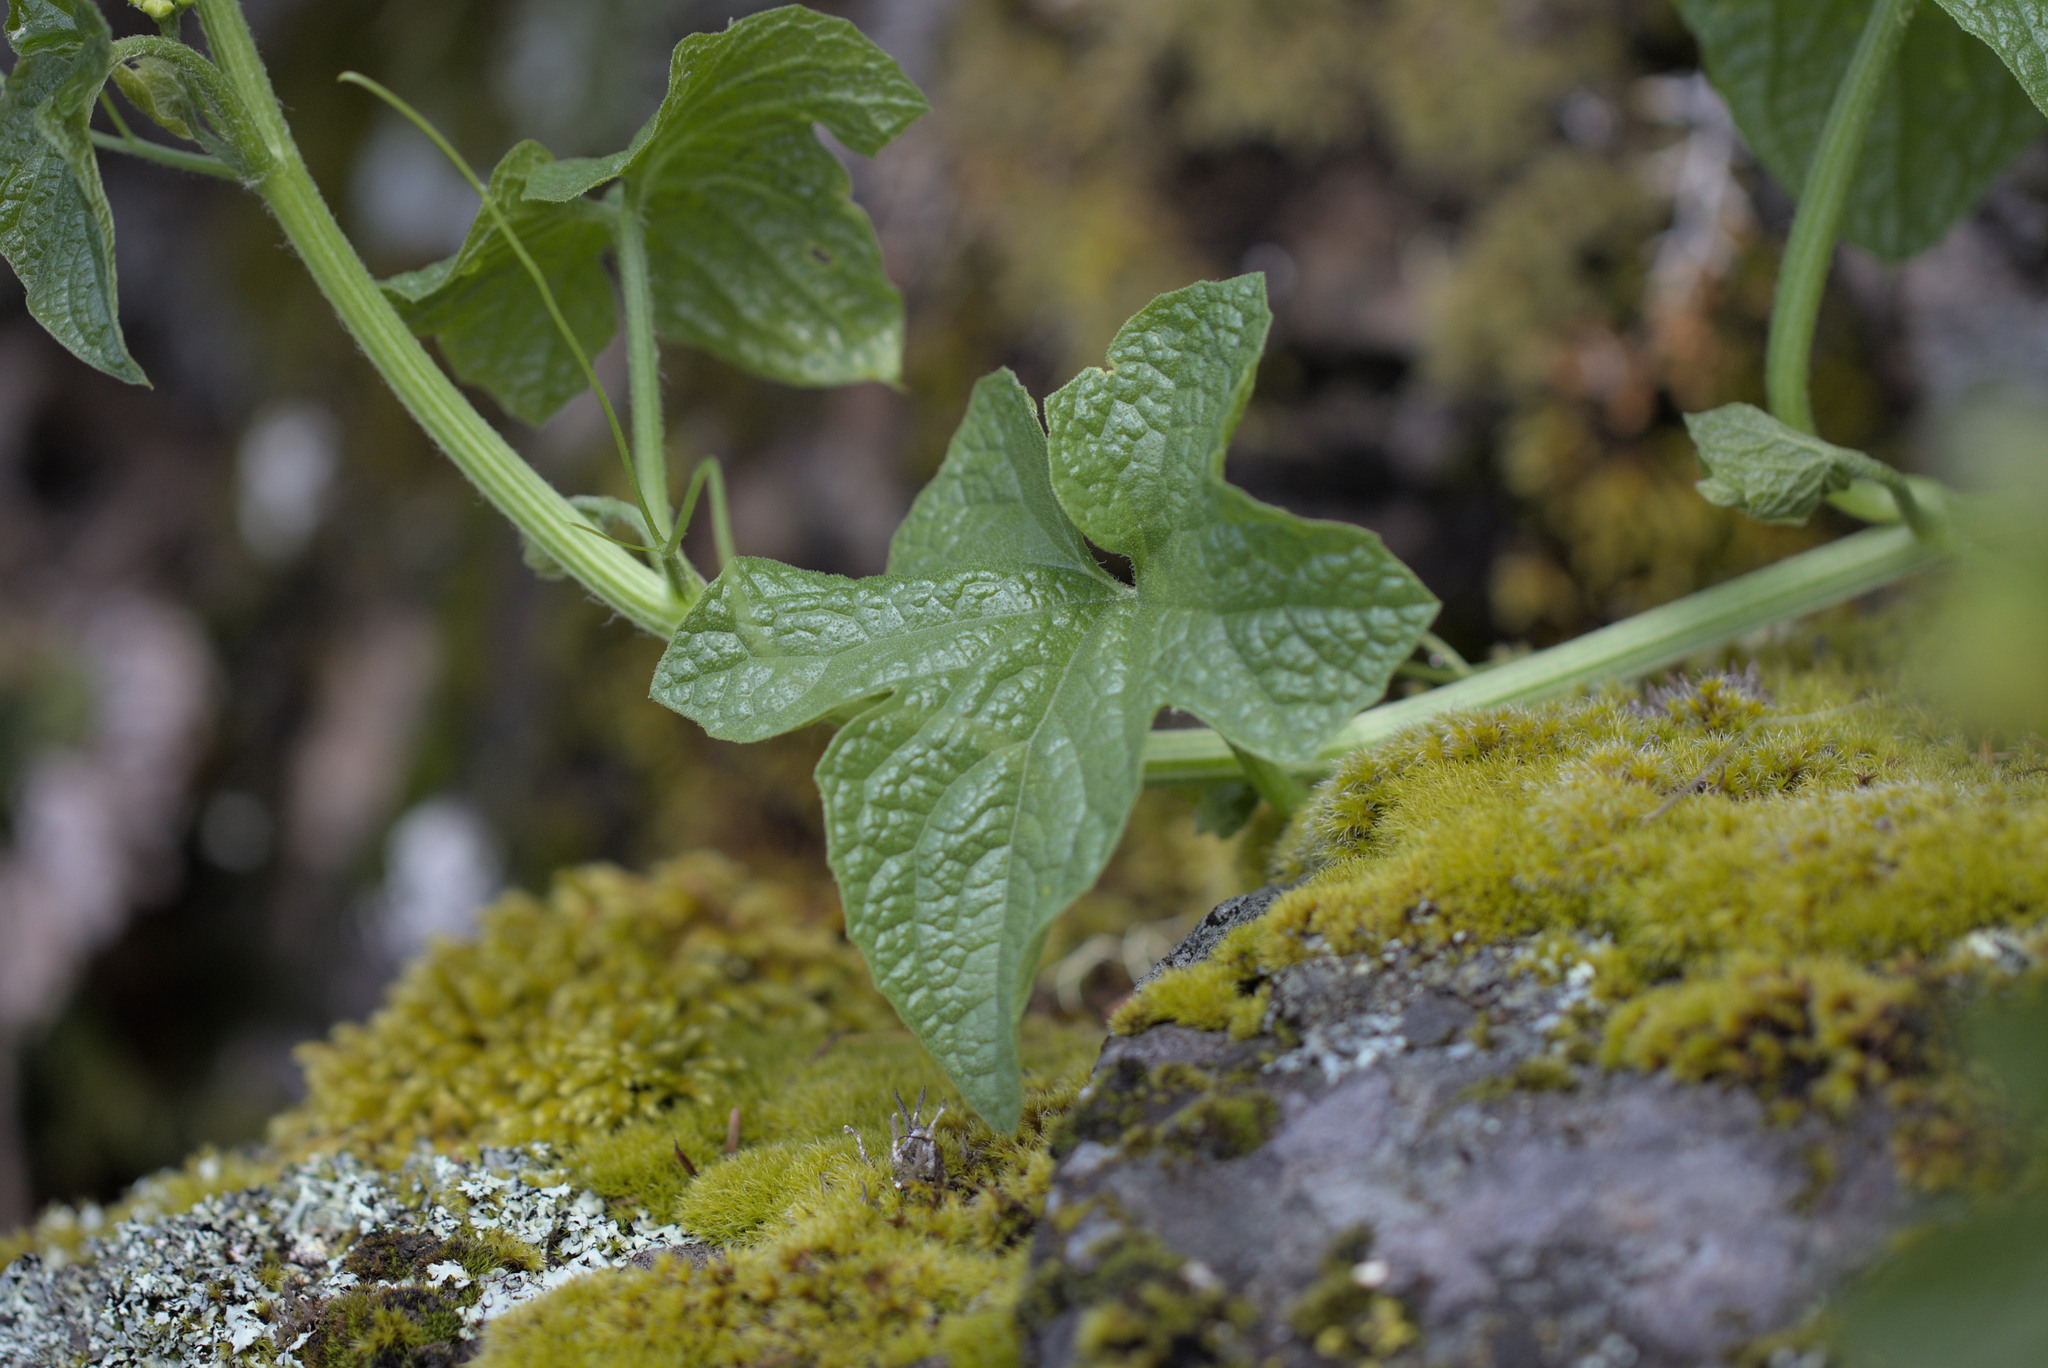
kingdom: Plantae
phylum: Tracheophyta
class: Magnoliopsida
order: Cucurbitales
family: Cucurbitaceae
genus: Marah
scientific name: Marah oregana
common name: Coastal manroot
